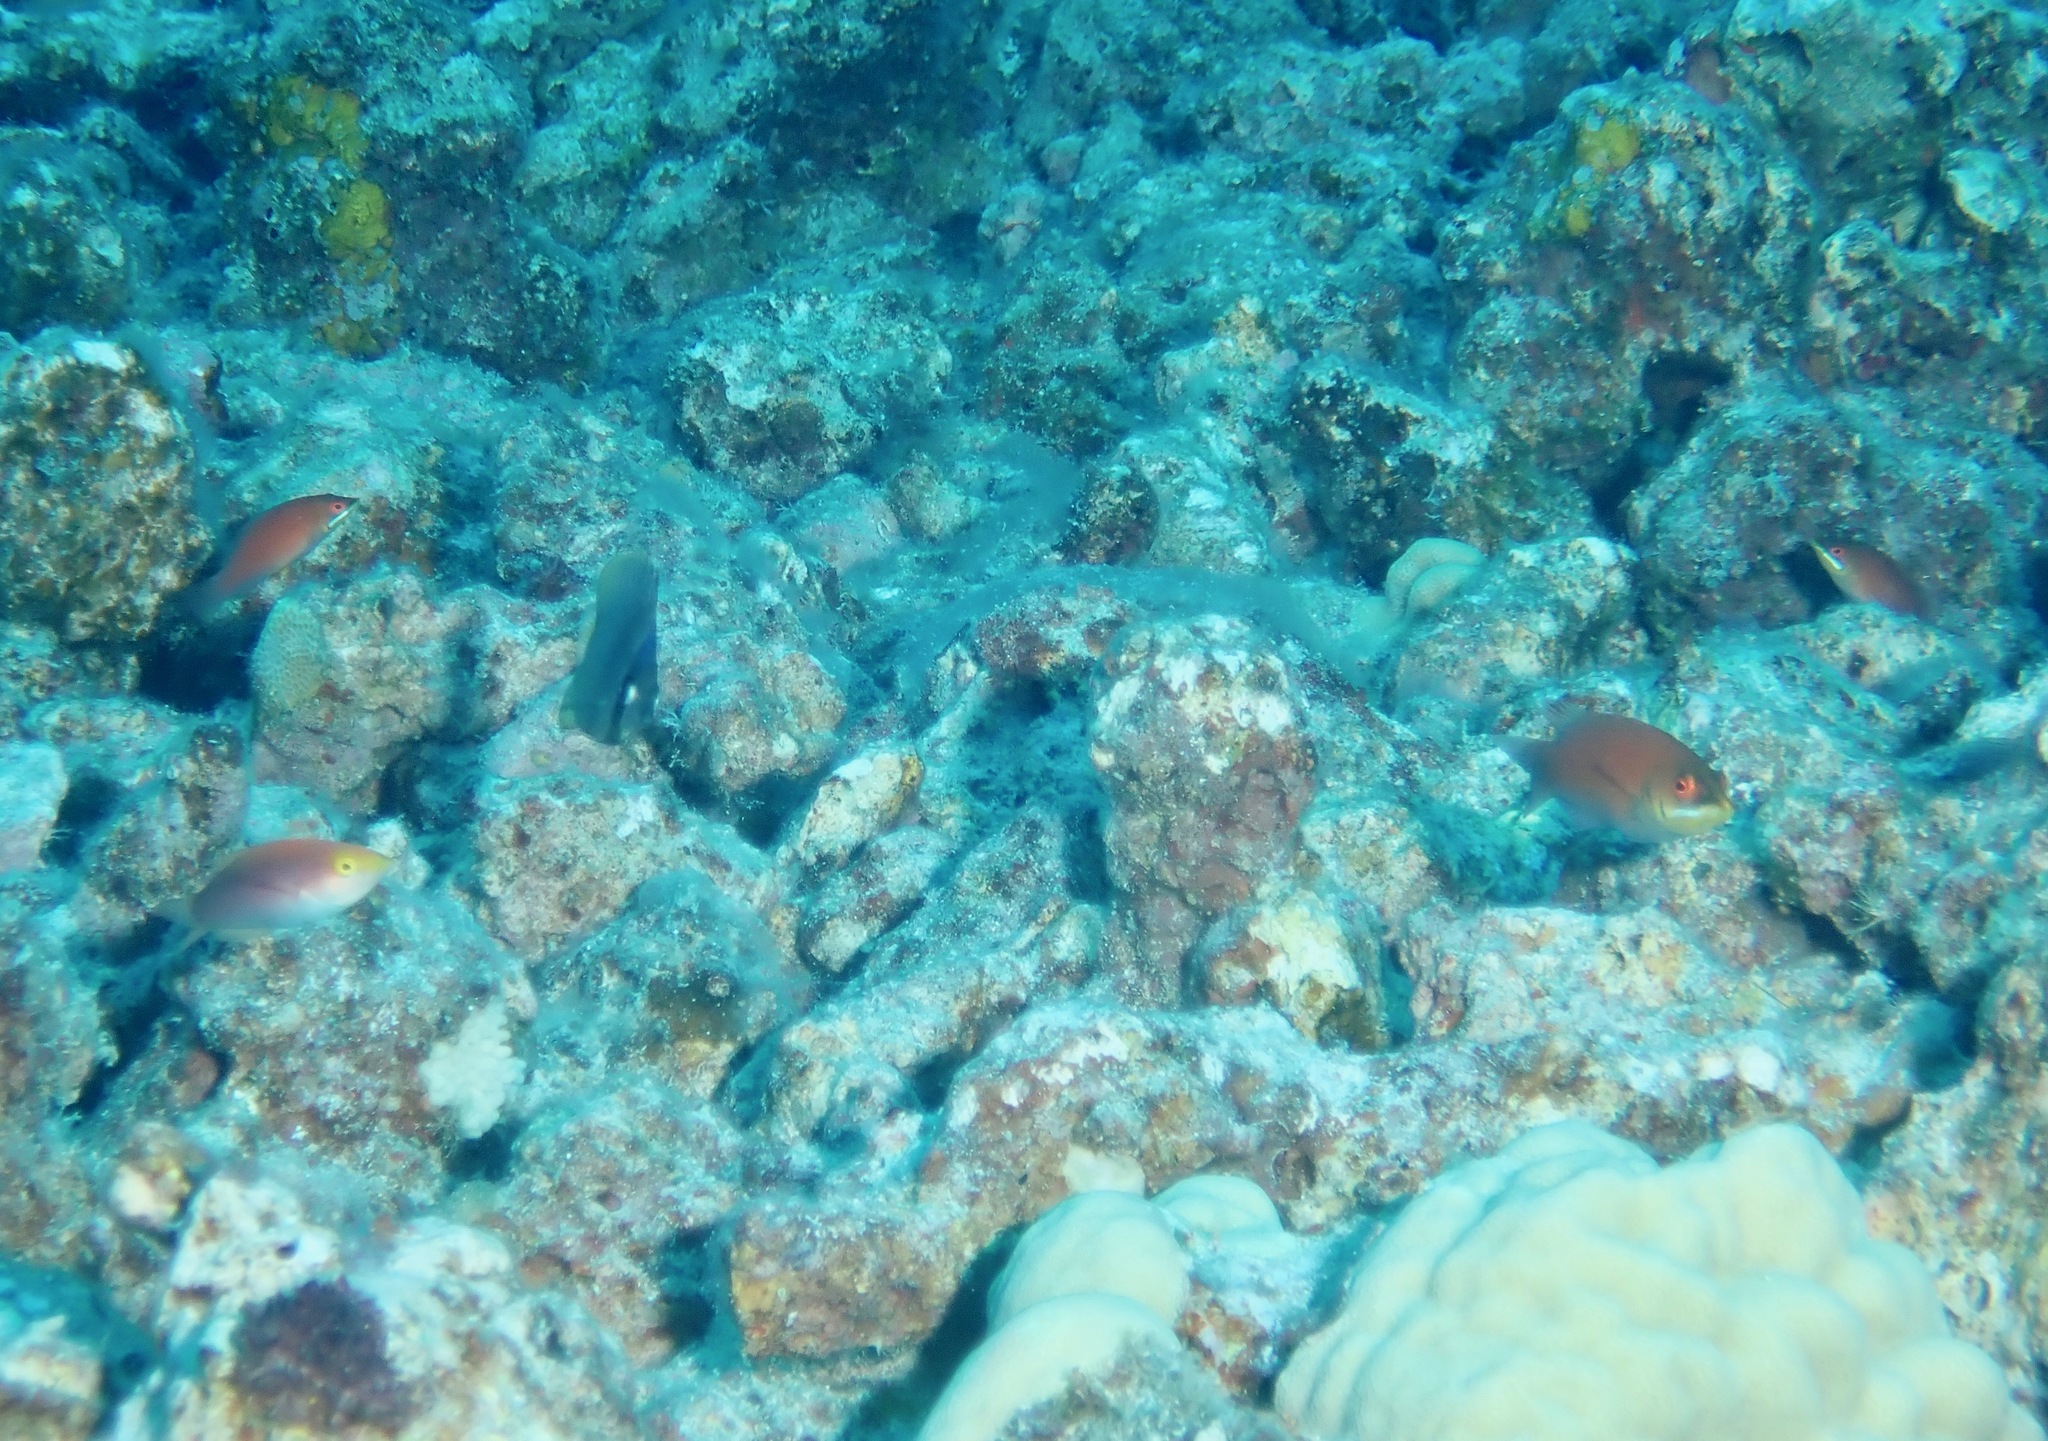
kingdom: Animalia
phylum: Chordata
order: Perciformes
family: Labridae
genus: Pseudojuloides
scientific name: Pseudojuloides cerasinus
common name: Smalltail wrasse
